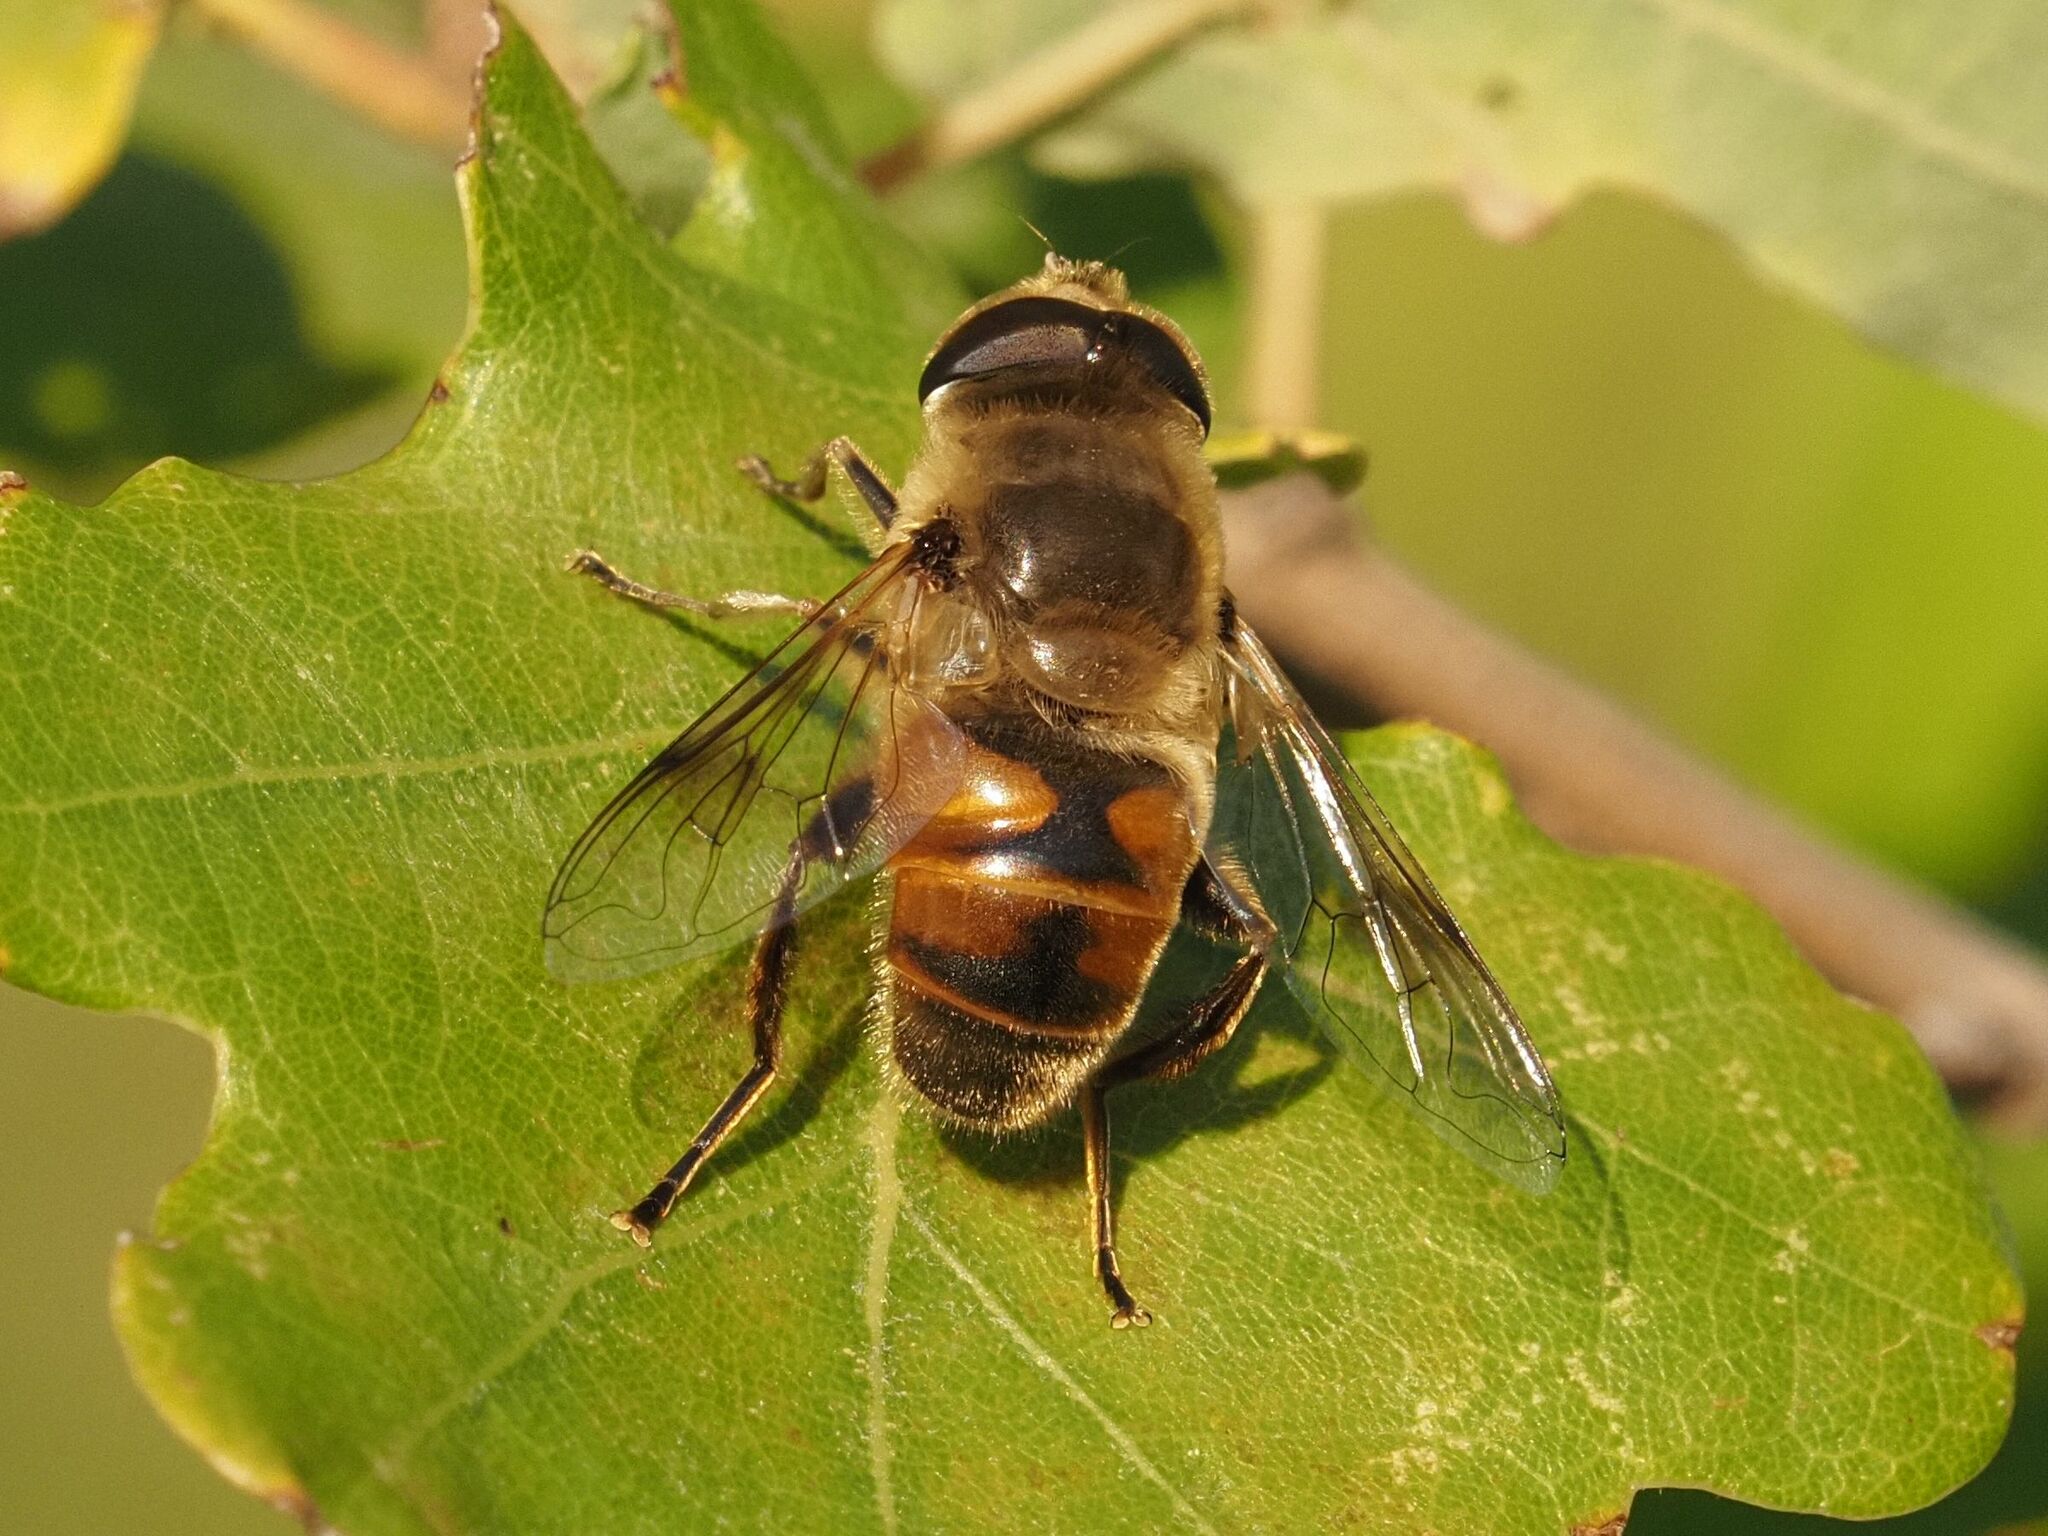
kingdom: Animalia
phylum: Arthropoda
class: Insecta
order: Diptera
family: Syrphidae
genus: Eristalis
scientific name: Eristalis tenax
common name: Drone fly
